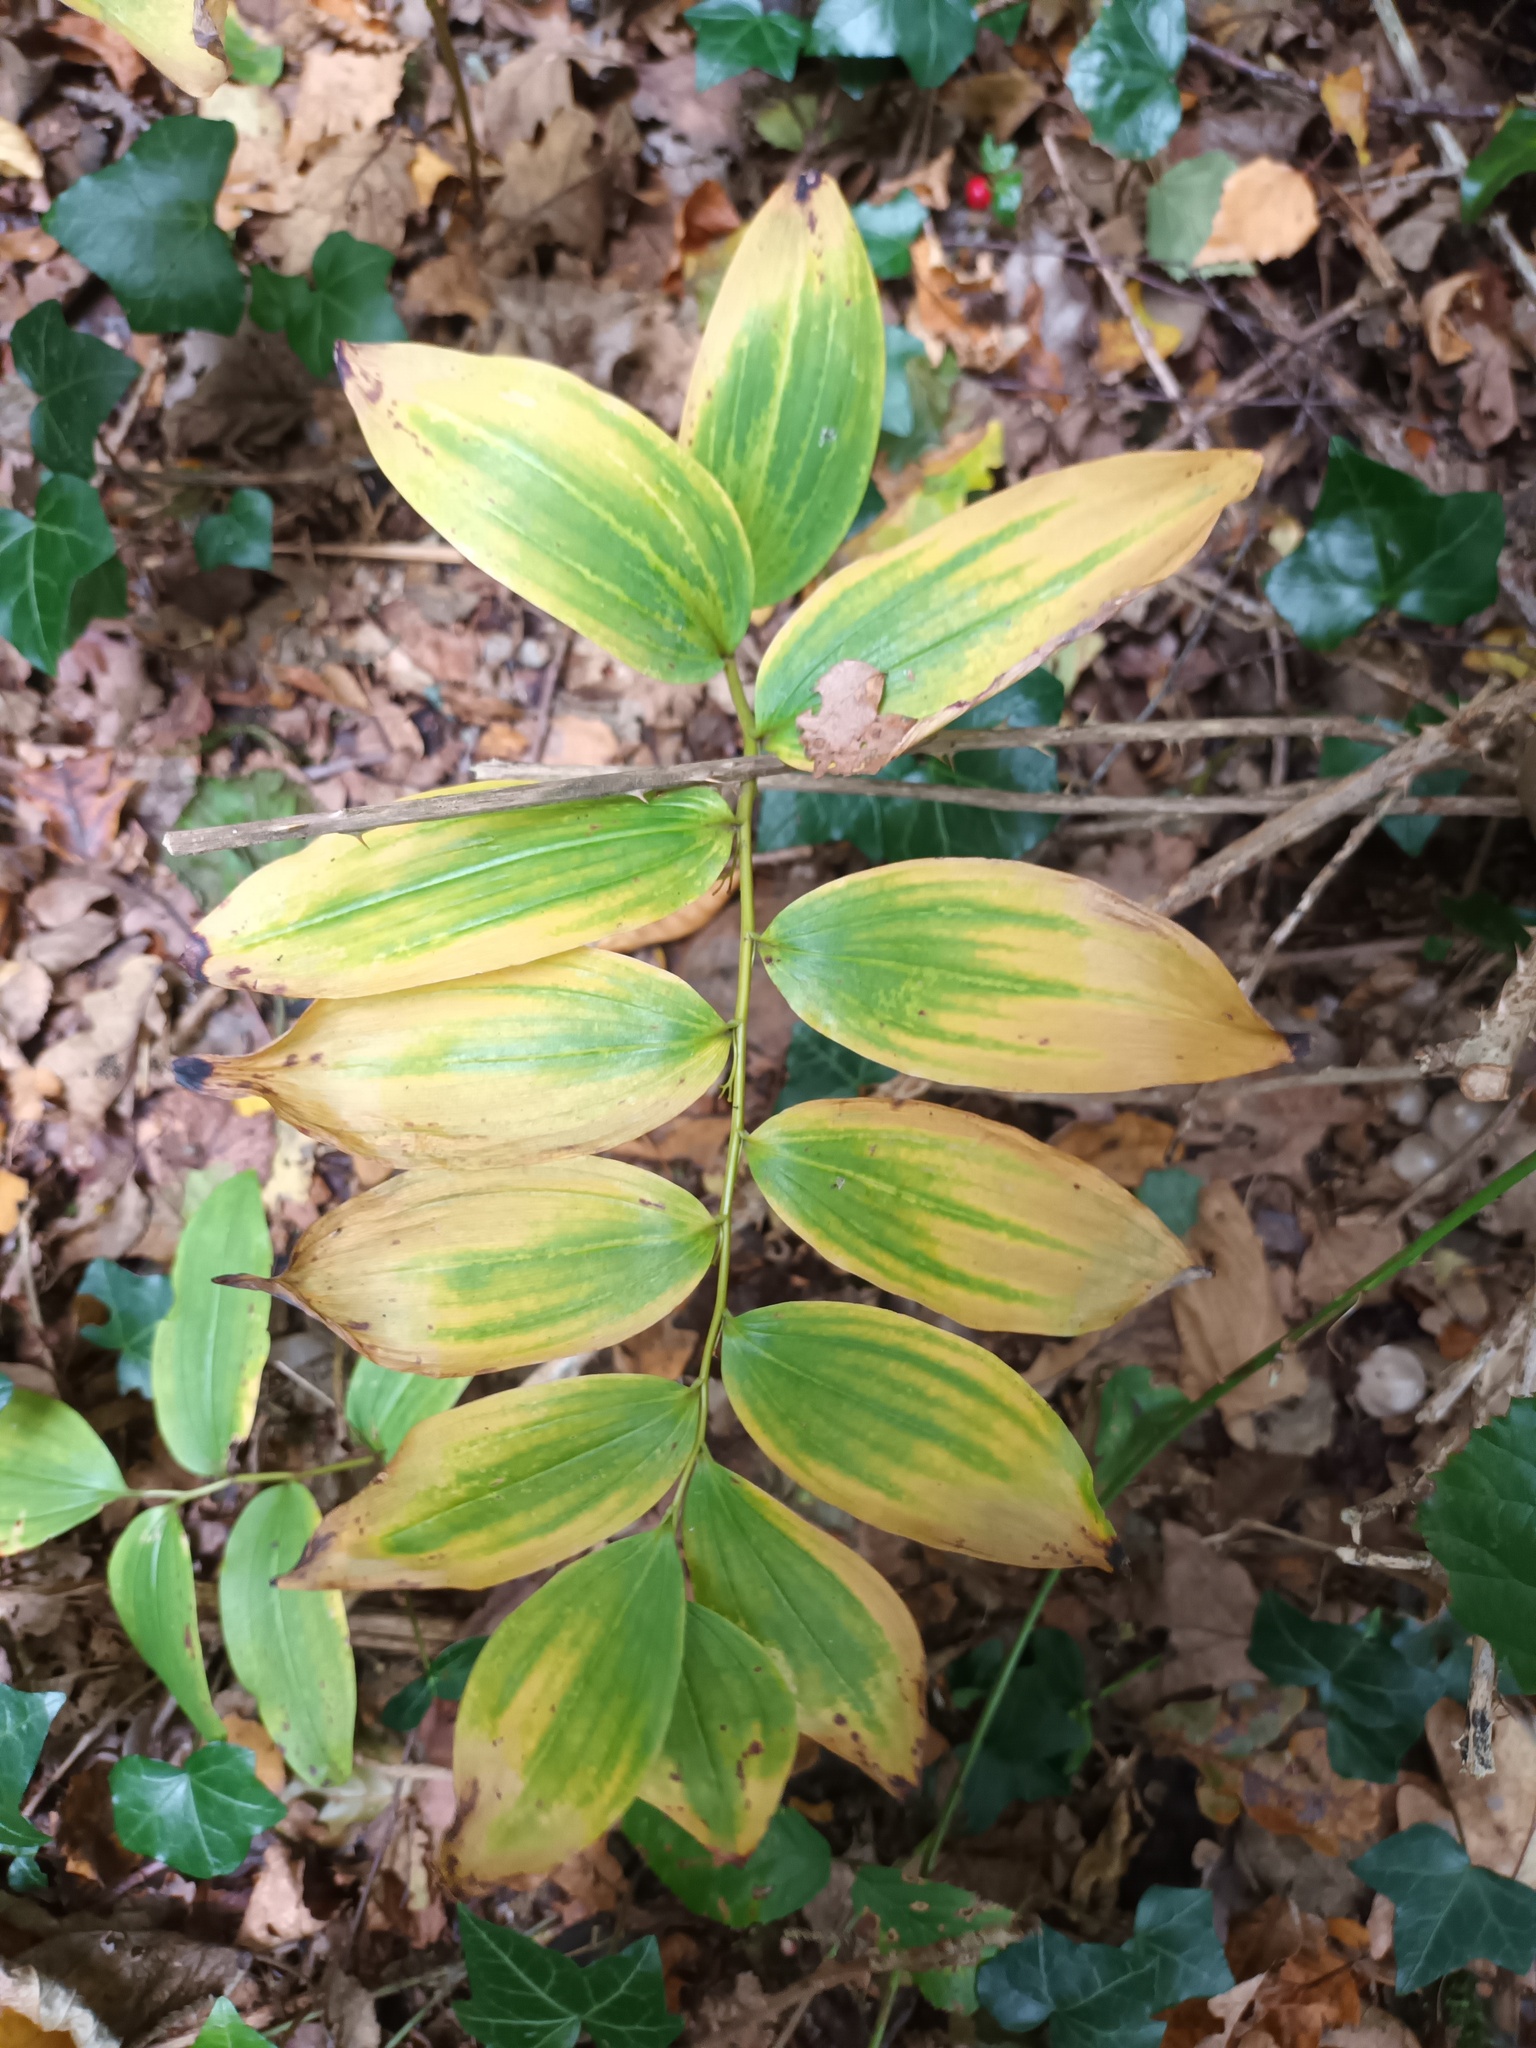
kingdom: Plantae
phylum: Tracheophyta
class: Liliopsida
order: Asparagales
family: Asparagaceae
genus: Polygonatum
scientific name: Polygonatum multiflorum
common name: Solomon's-seal
